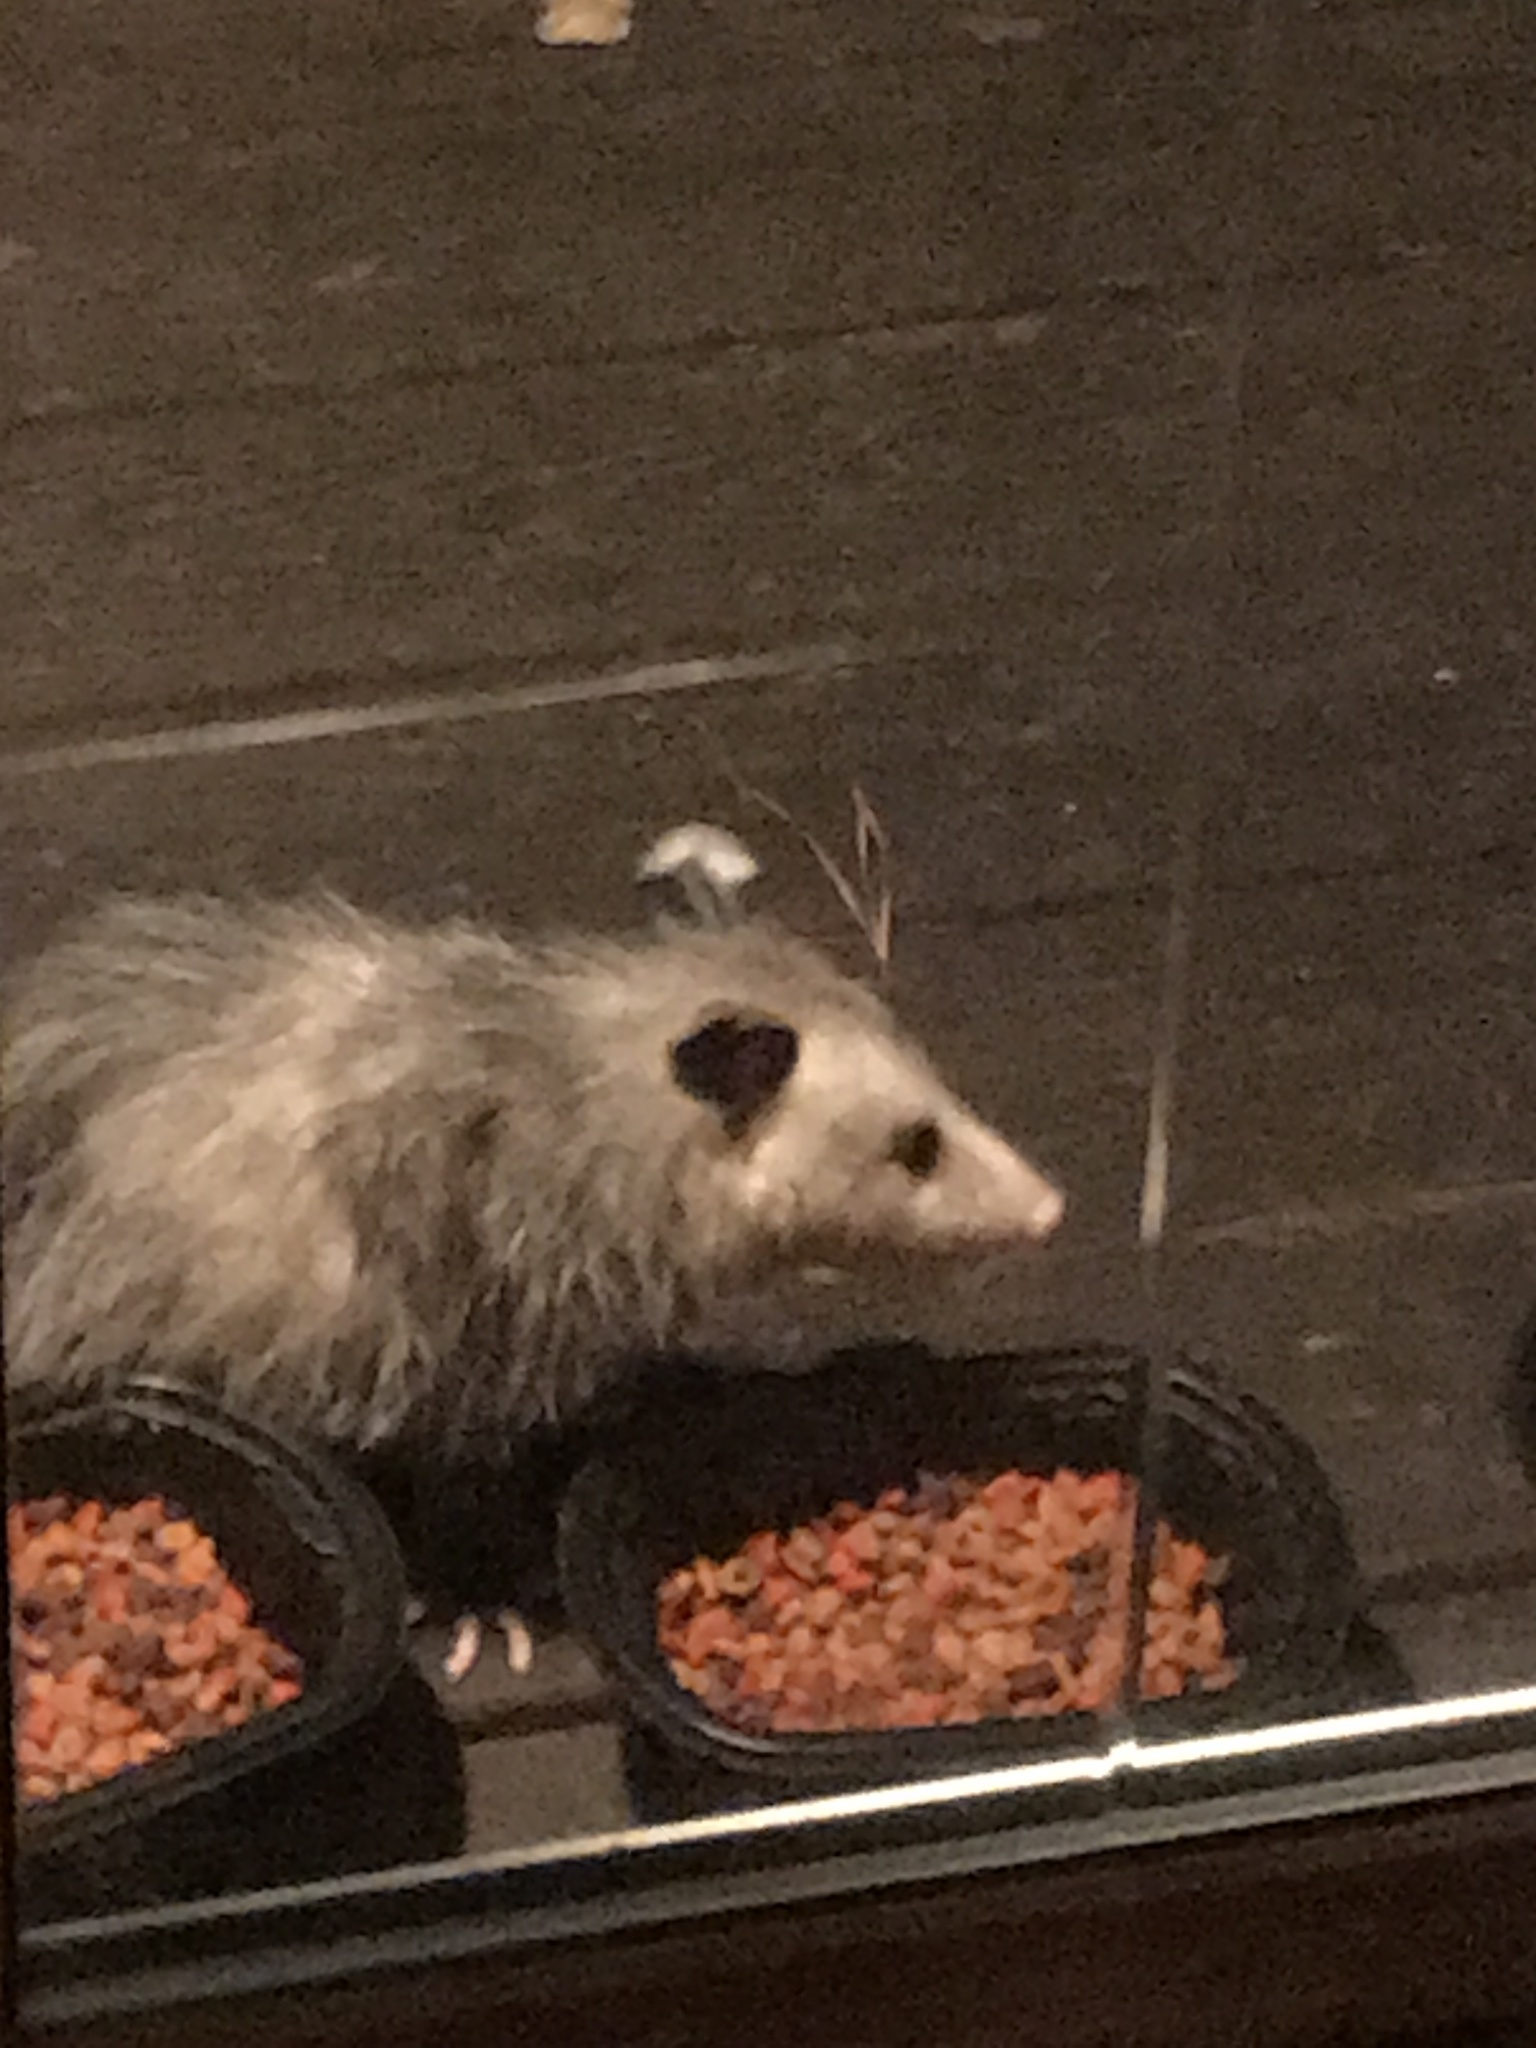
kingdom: Animalia
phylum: Chordata
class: Mammalia
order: Didelphimorphia
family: Didelphidae
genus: Didelphis
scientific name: Didelphis virginiana
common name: Virginia opossum
